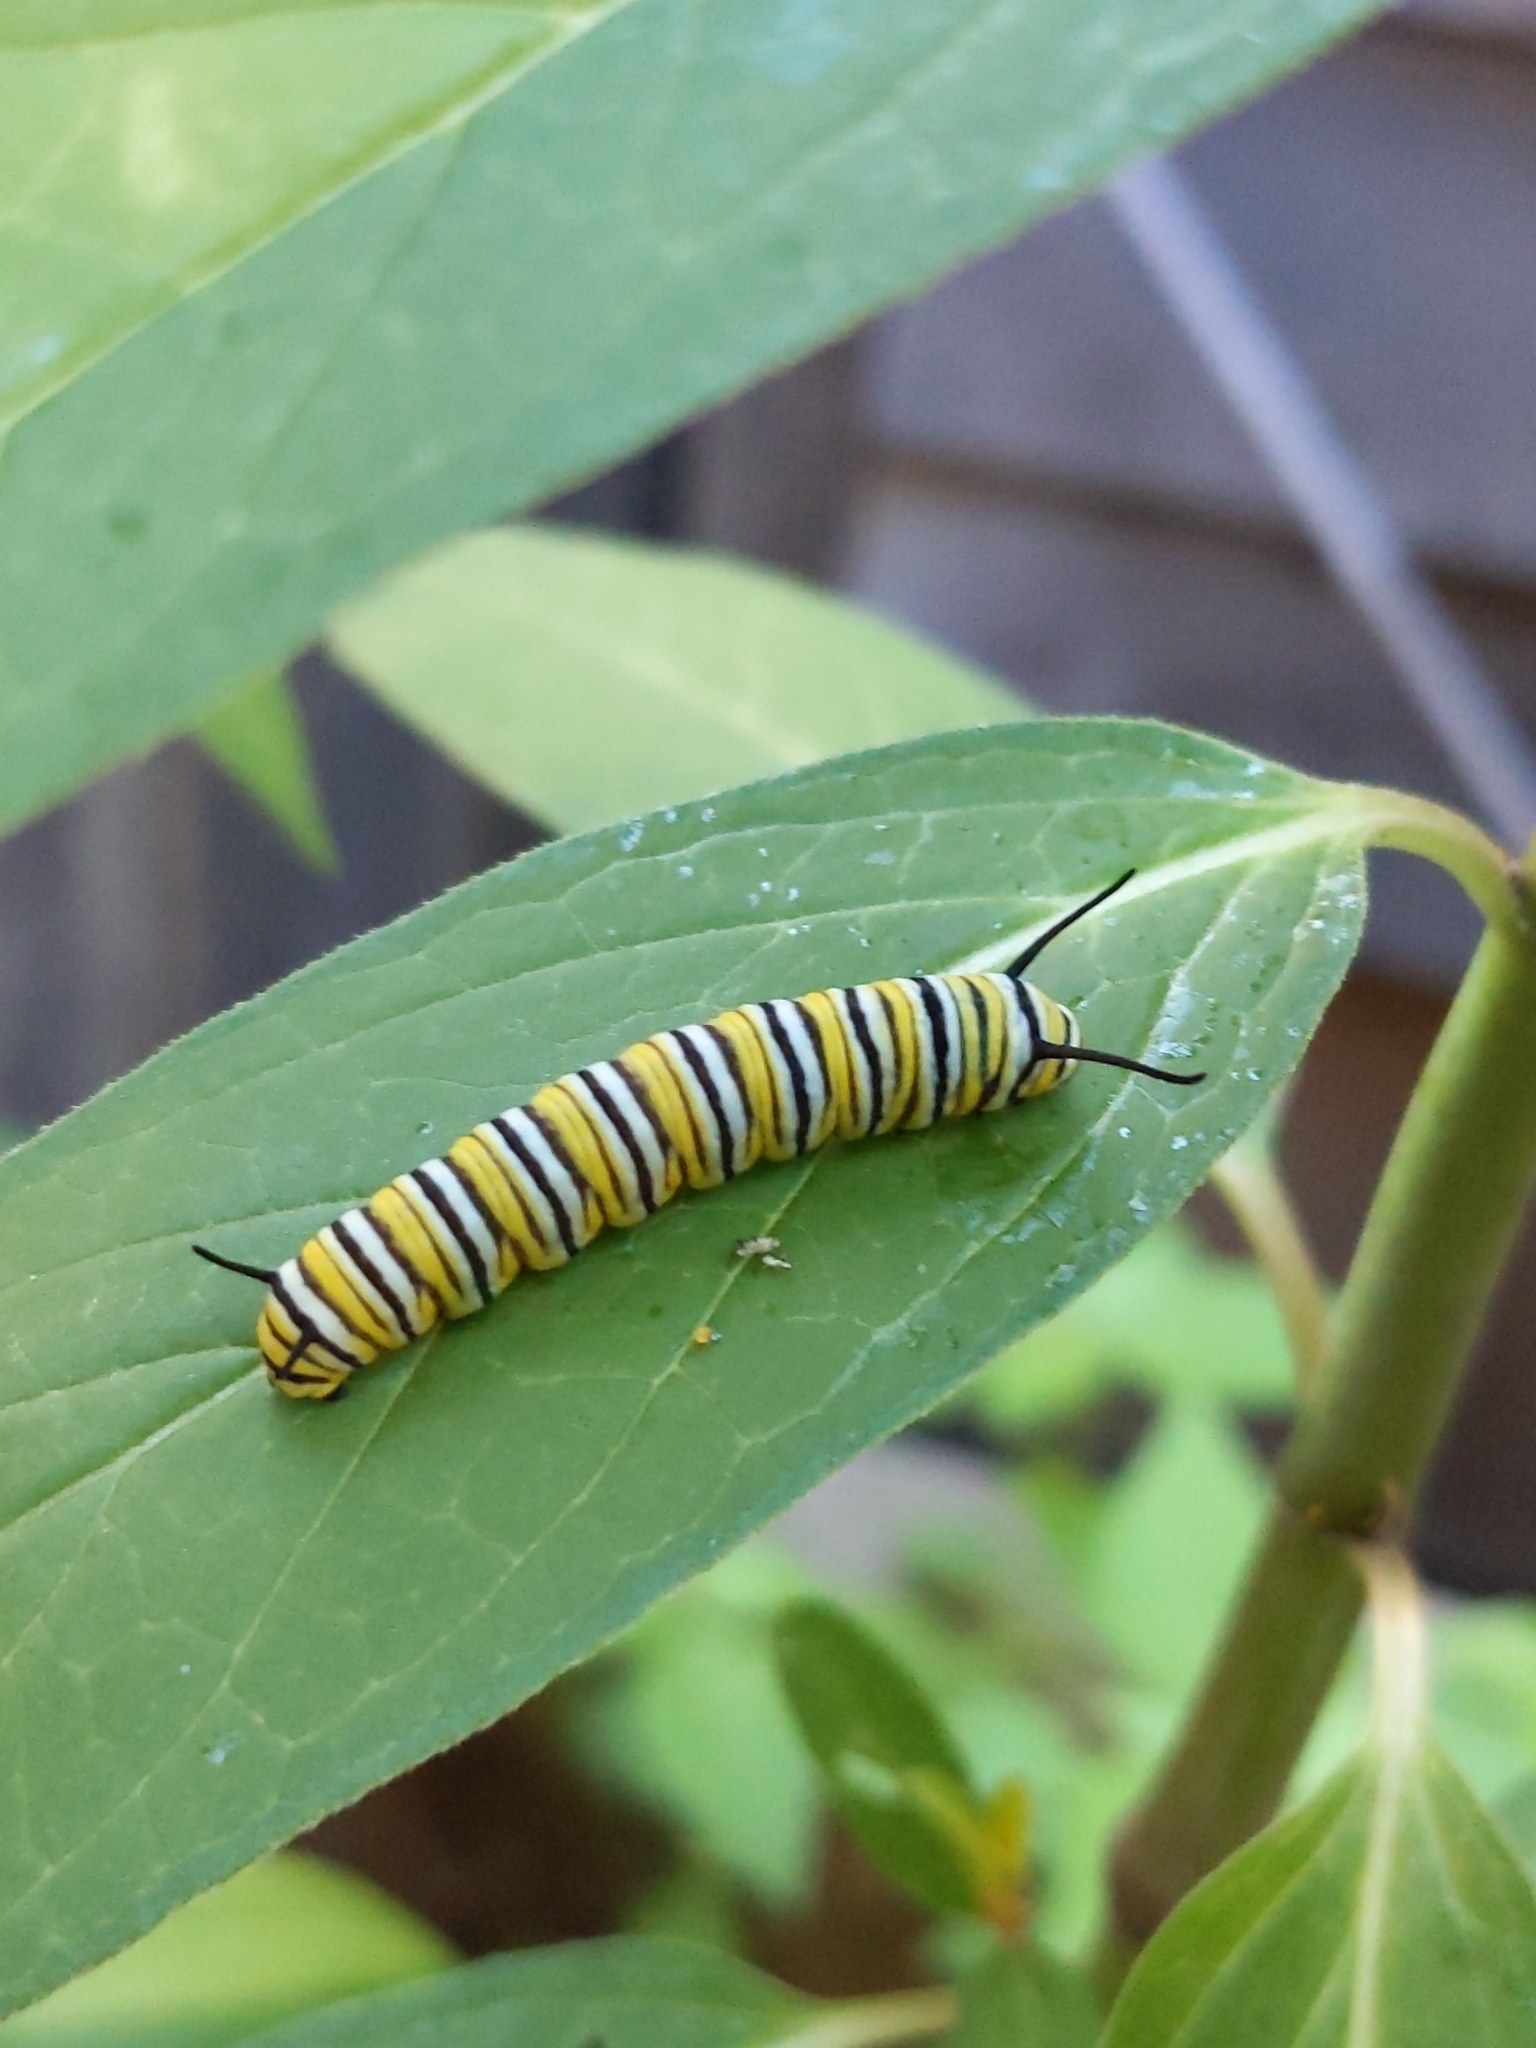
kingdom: Animalia
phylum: Arthropoda
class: Insecta
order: Lepidoptera
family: Nymphalidae
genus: Danaus
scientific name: Danaus plexippus
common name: Monarch
